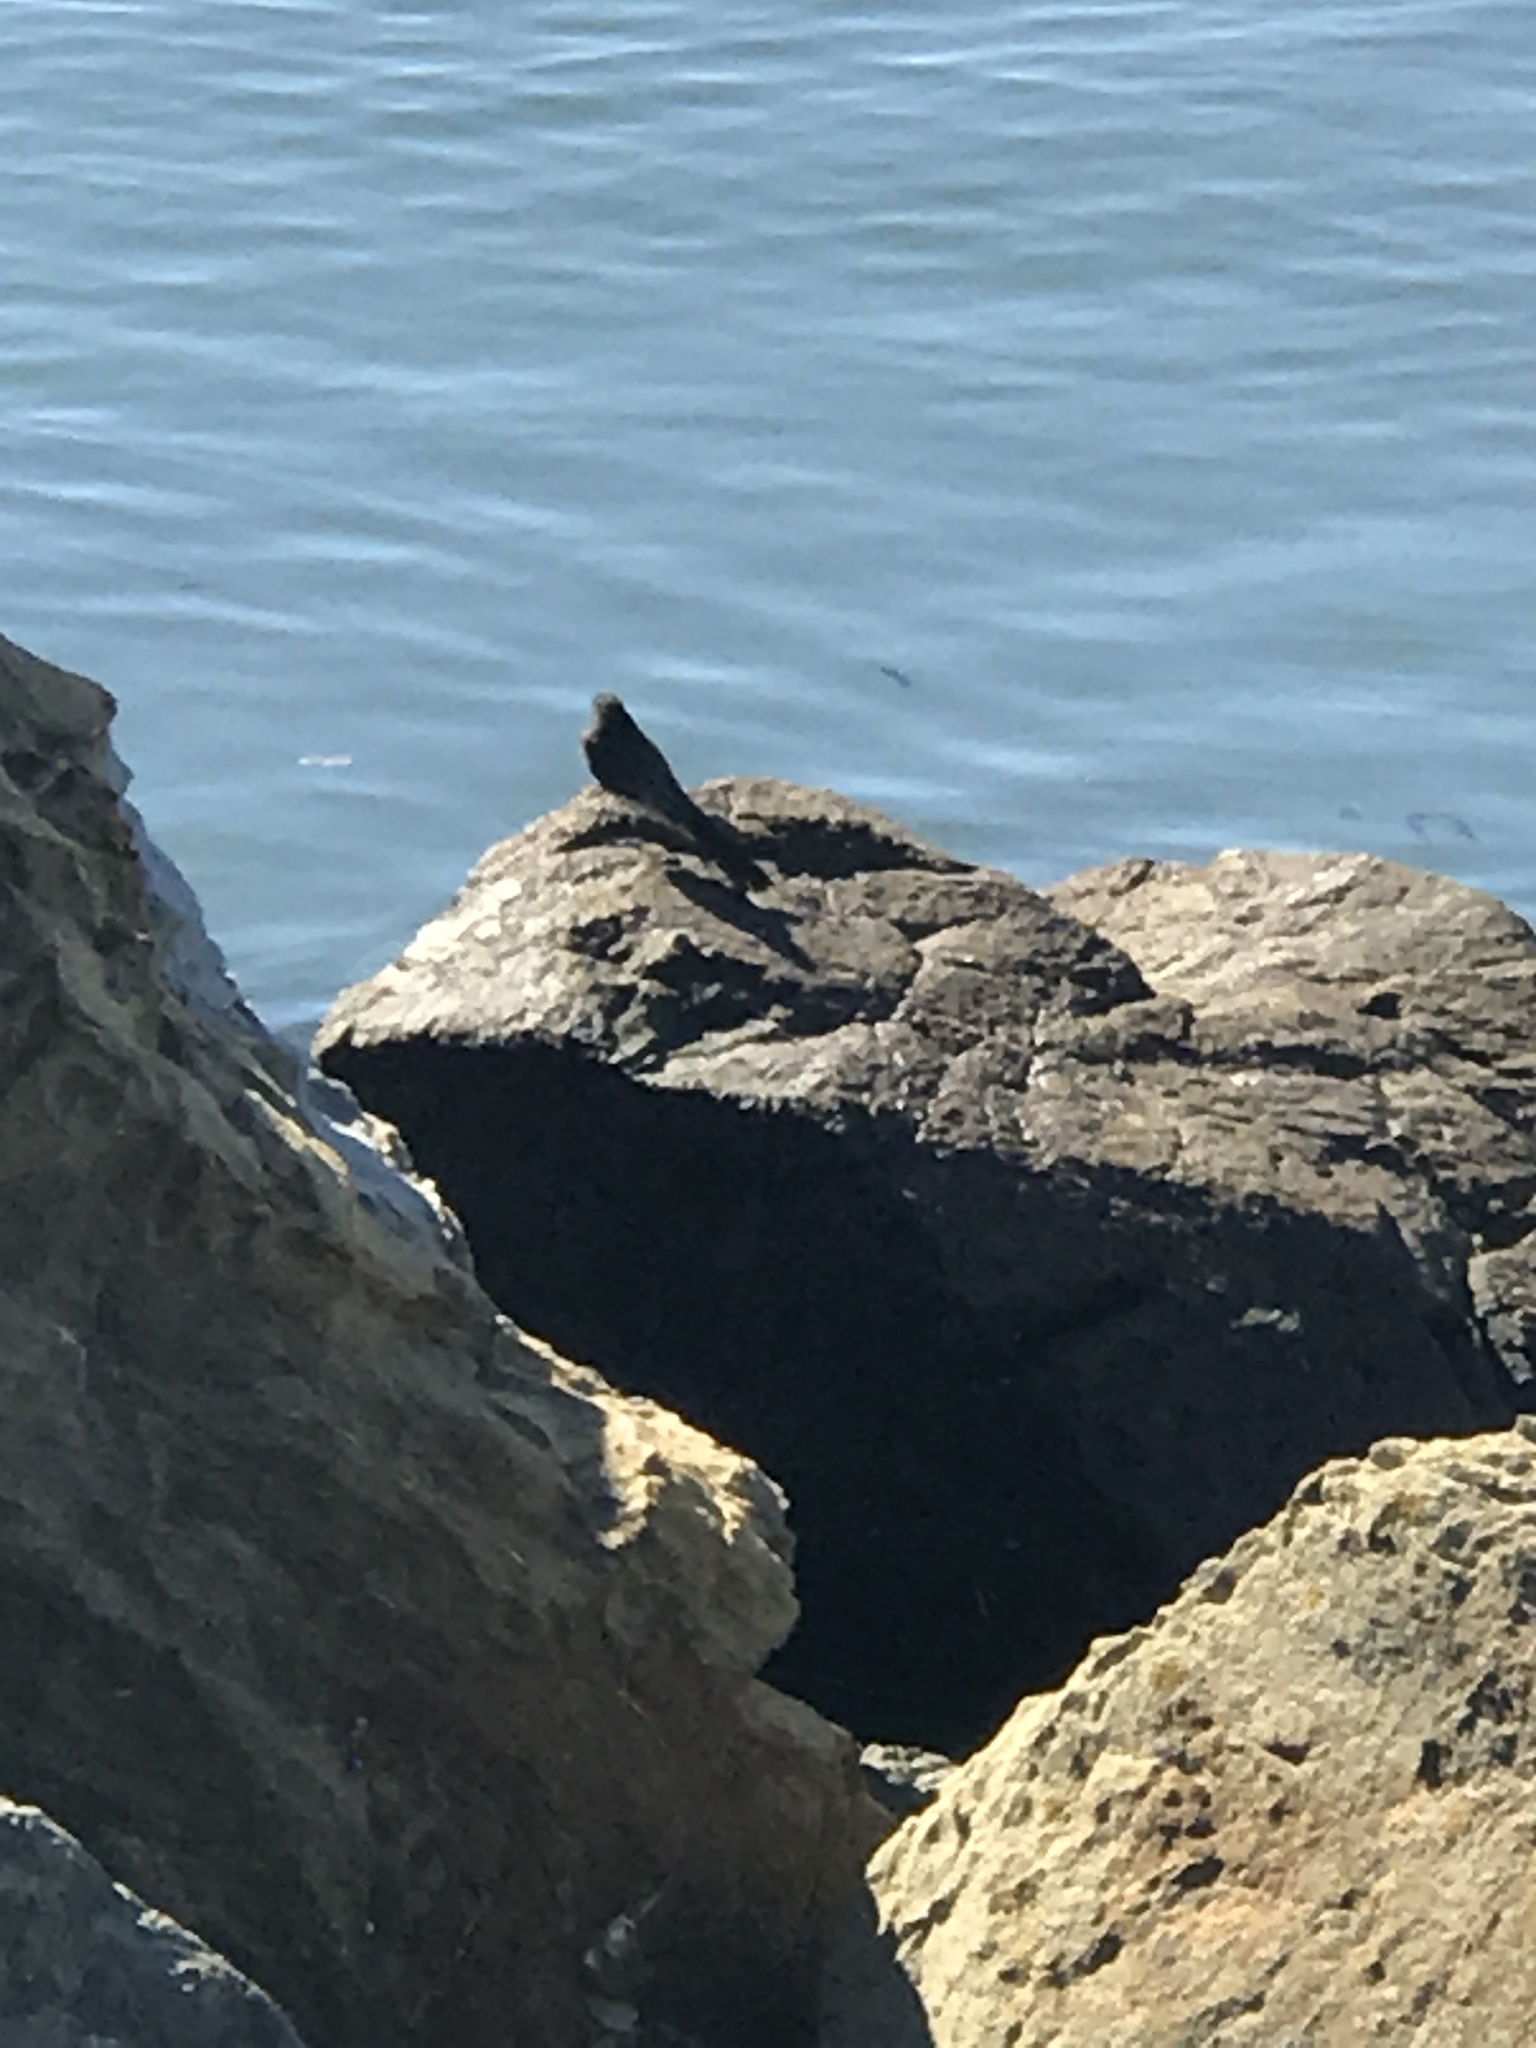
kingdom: Animalia
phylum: Chordata
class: Aves
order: Passeriformes
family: Tyrannidae
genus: Sayornis
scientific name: Sayornis nigricans
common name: Black phoebe
